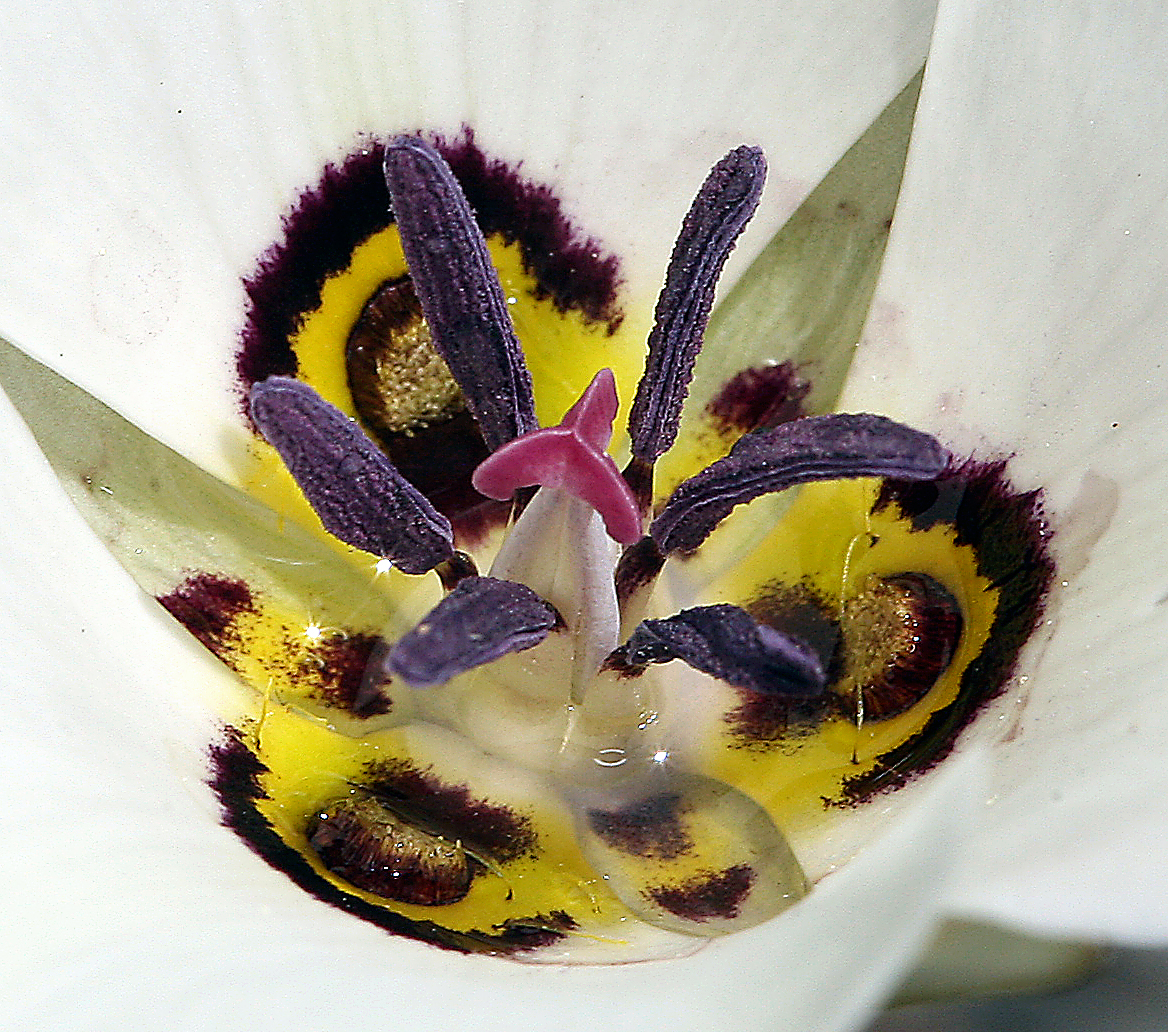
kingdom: Plantae
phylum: Tracheophyta
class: Liliopsida
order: Liliales
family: Liliaceae
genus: Calochortus
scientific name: Calochortus bruneaunis
